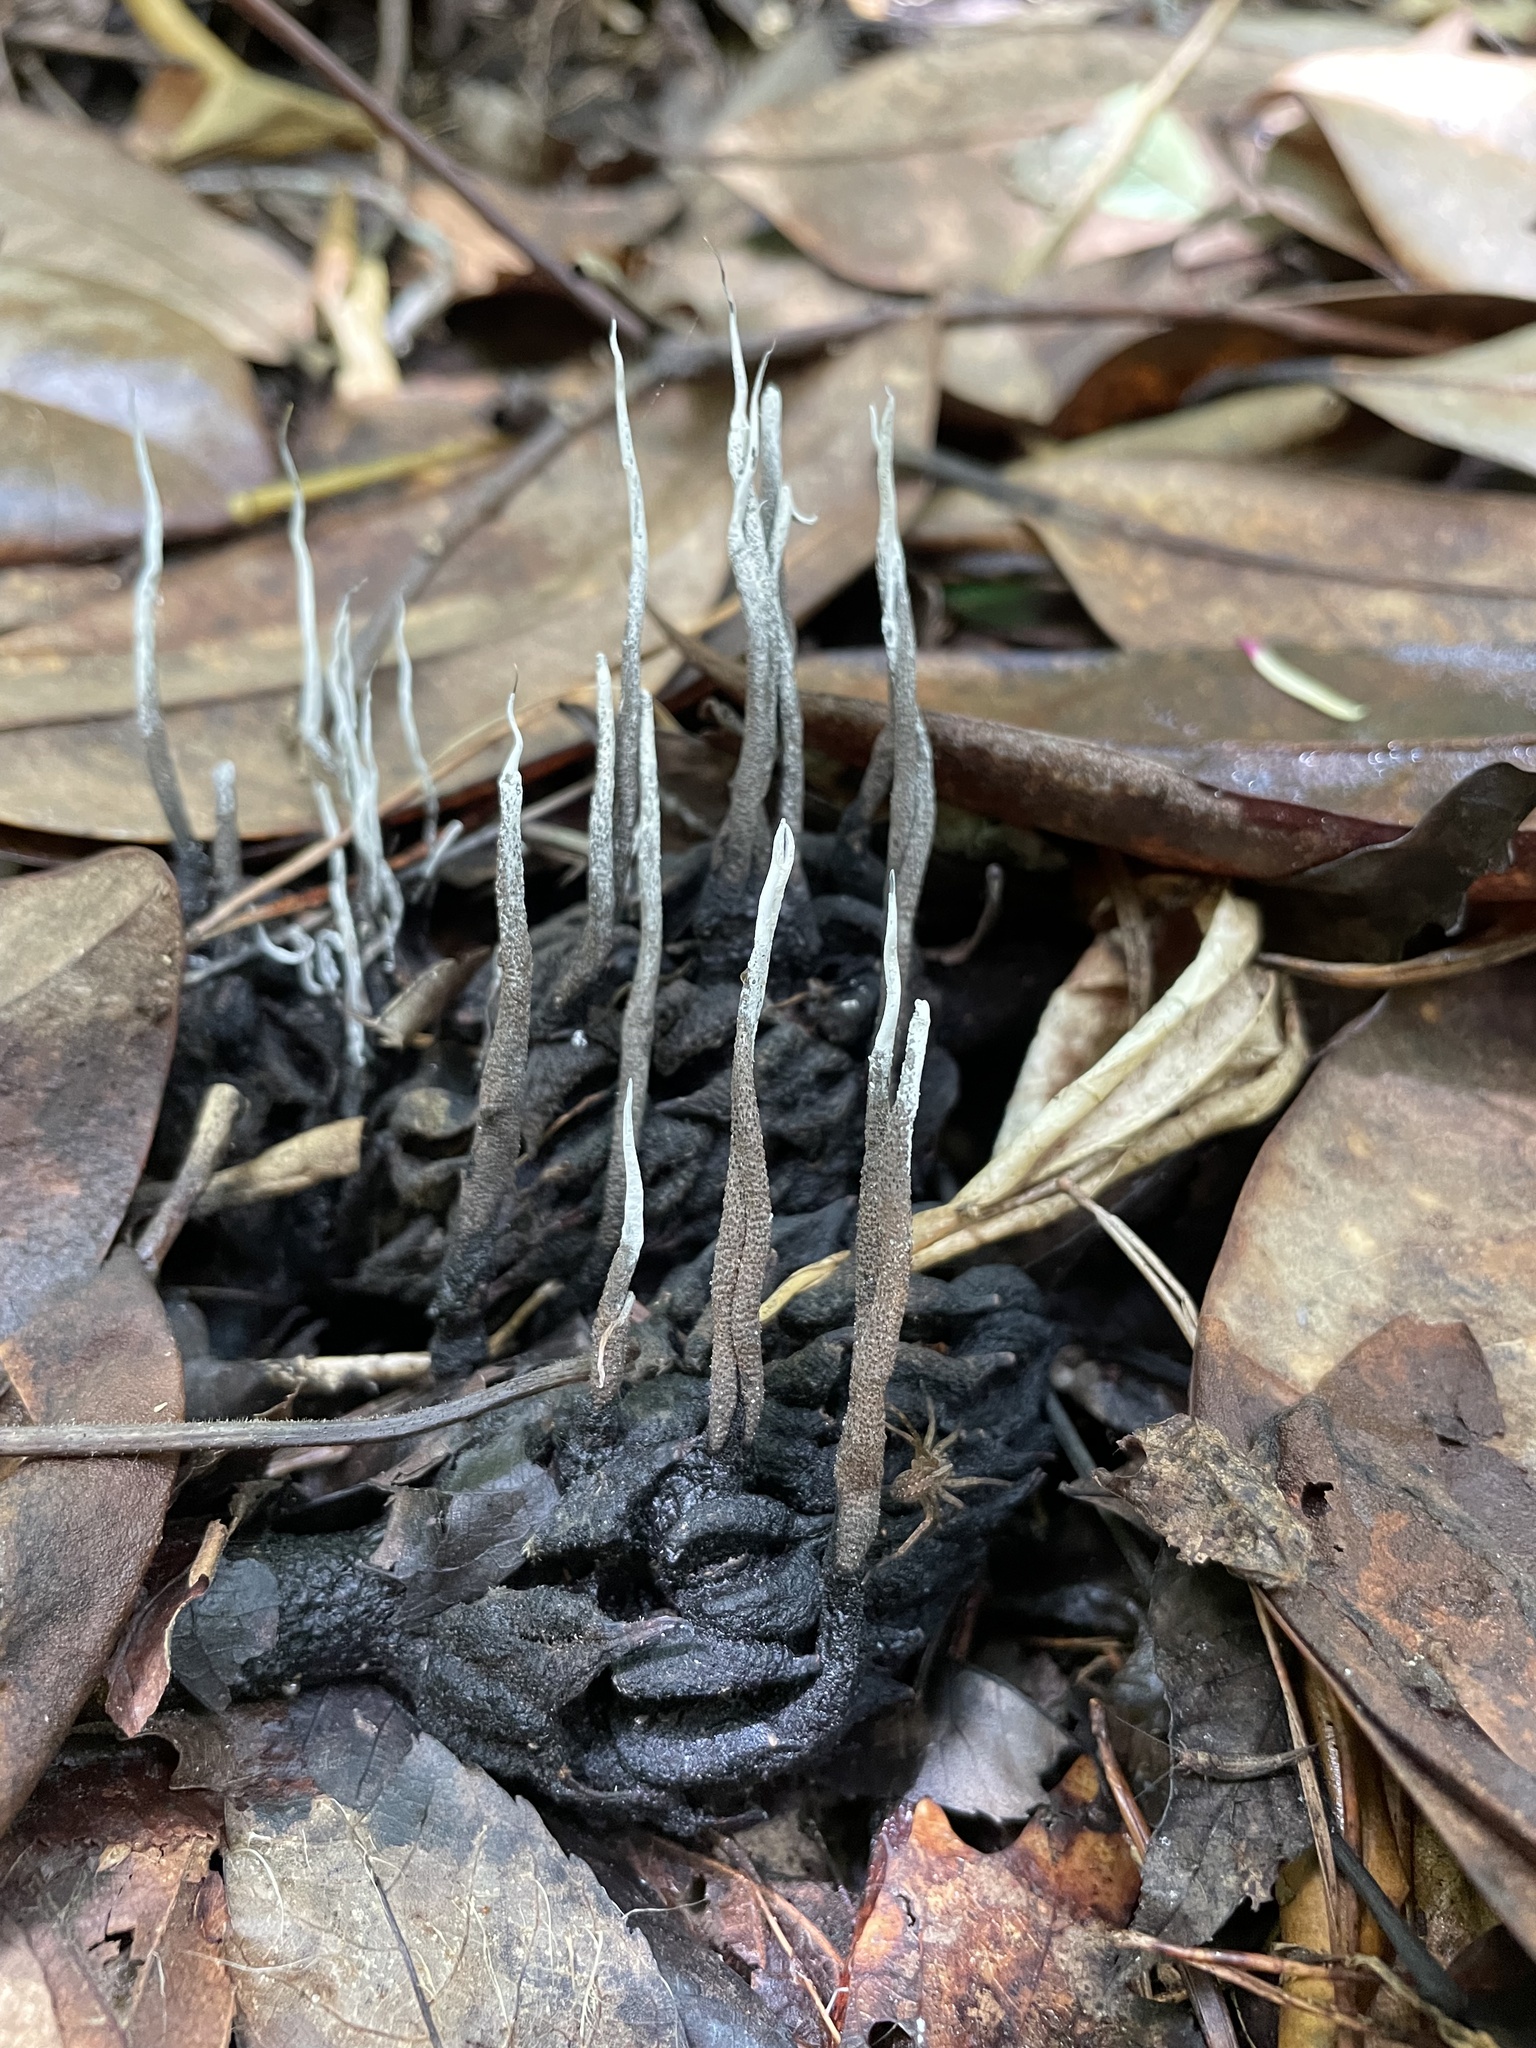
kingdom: Fungi
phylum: Ascomycota
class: Sordariomycetes
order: Xylariales
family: Xylariaceae
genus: Xylaria
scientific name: Xylaria magnoliae
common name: Magnolia-cone xylaria
